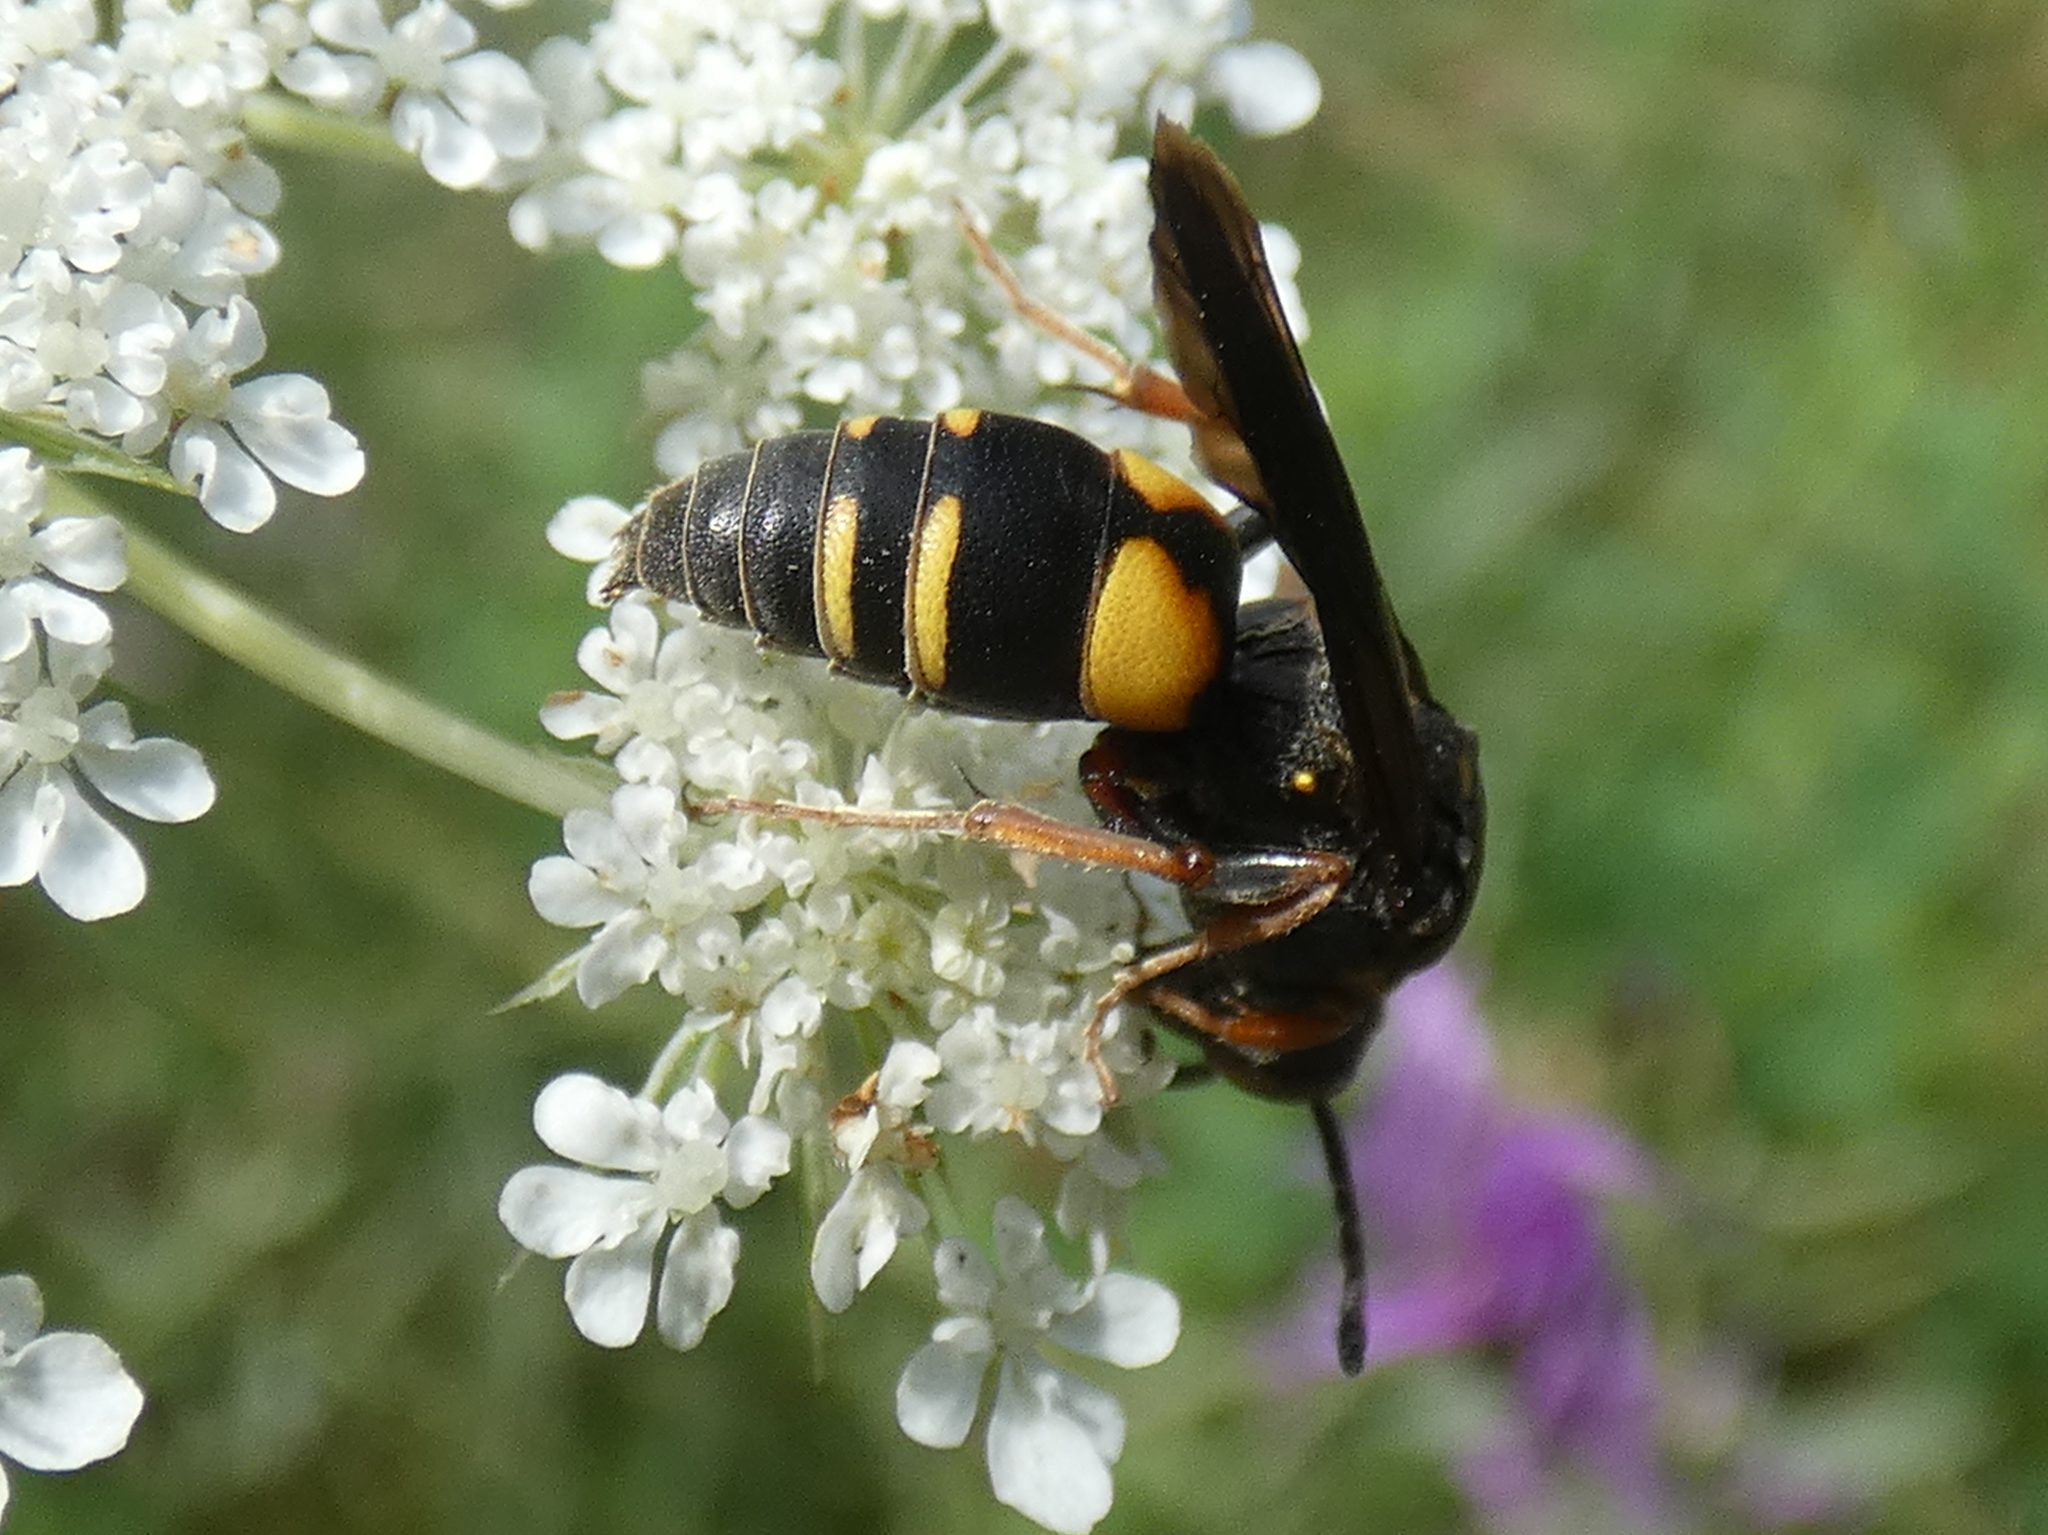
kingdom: Animalia
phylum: Arthropoda
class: Insecta
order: Hymenoptera
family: Crabronidae
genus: Nysson
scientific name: Nysson plagiatus
